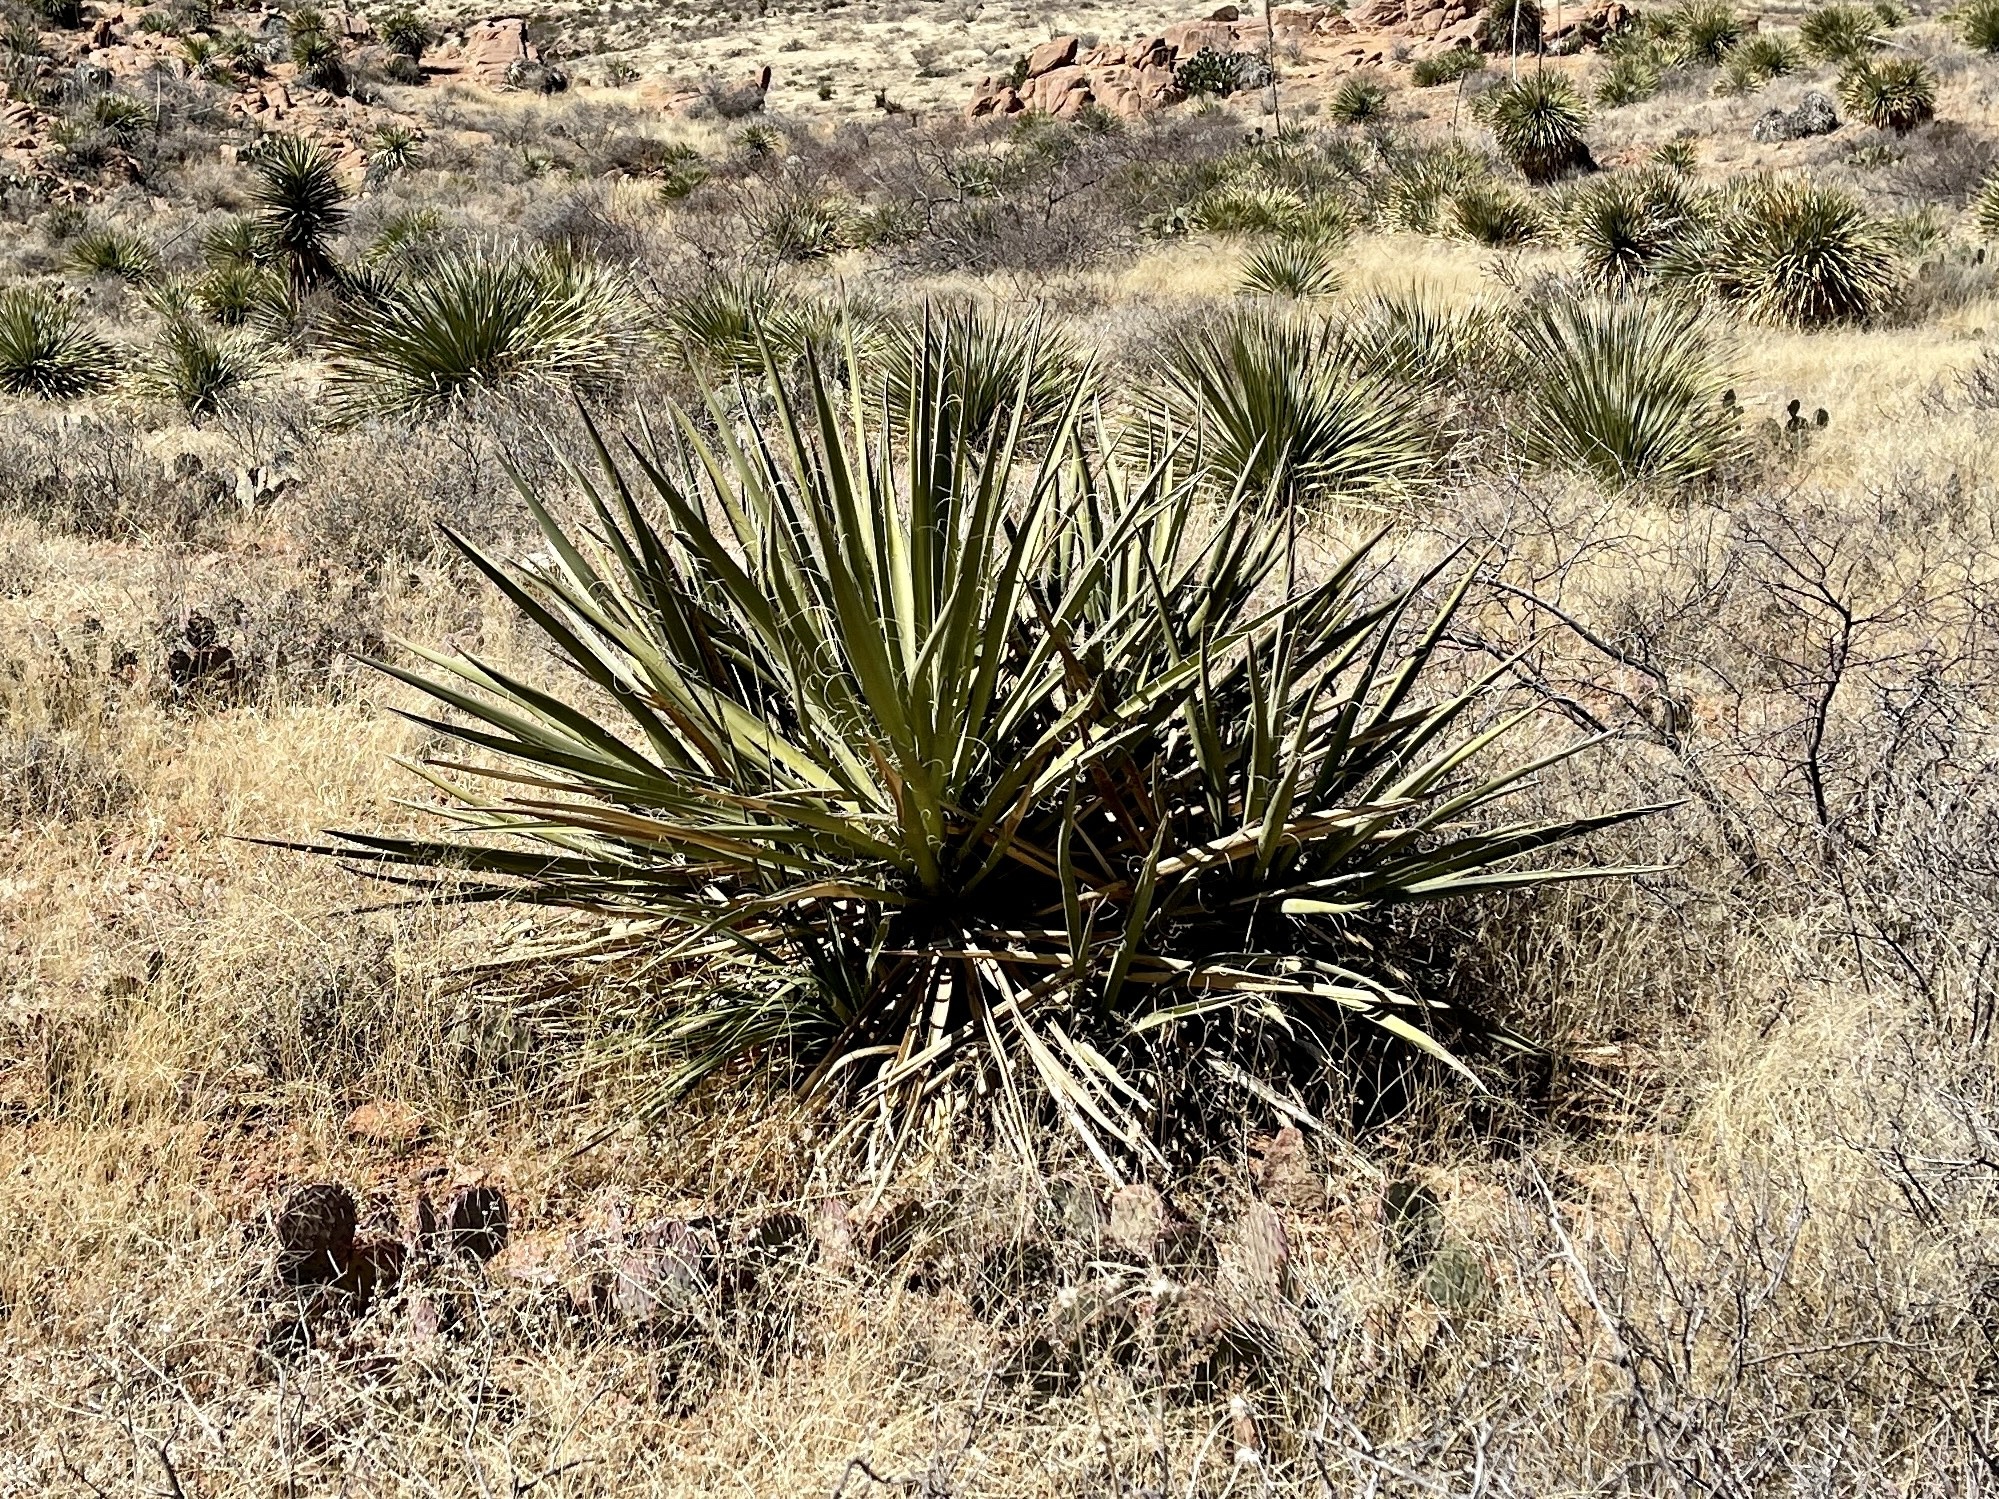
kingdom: Plantae
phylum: Tracheophyta
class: Liliopsida
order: Asparagales
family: Asparagaceae
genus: Yucca
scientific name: Yucca baccata
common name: Banana yucca
